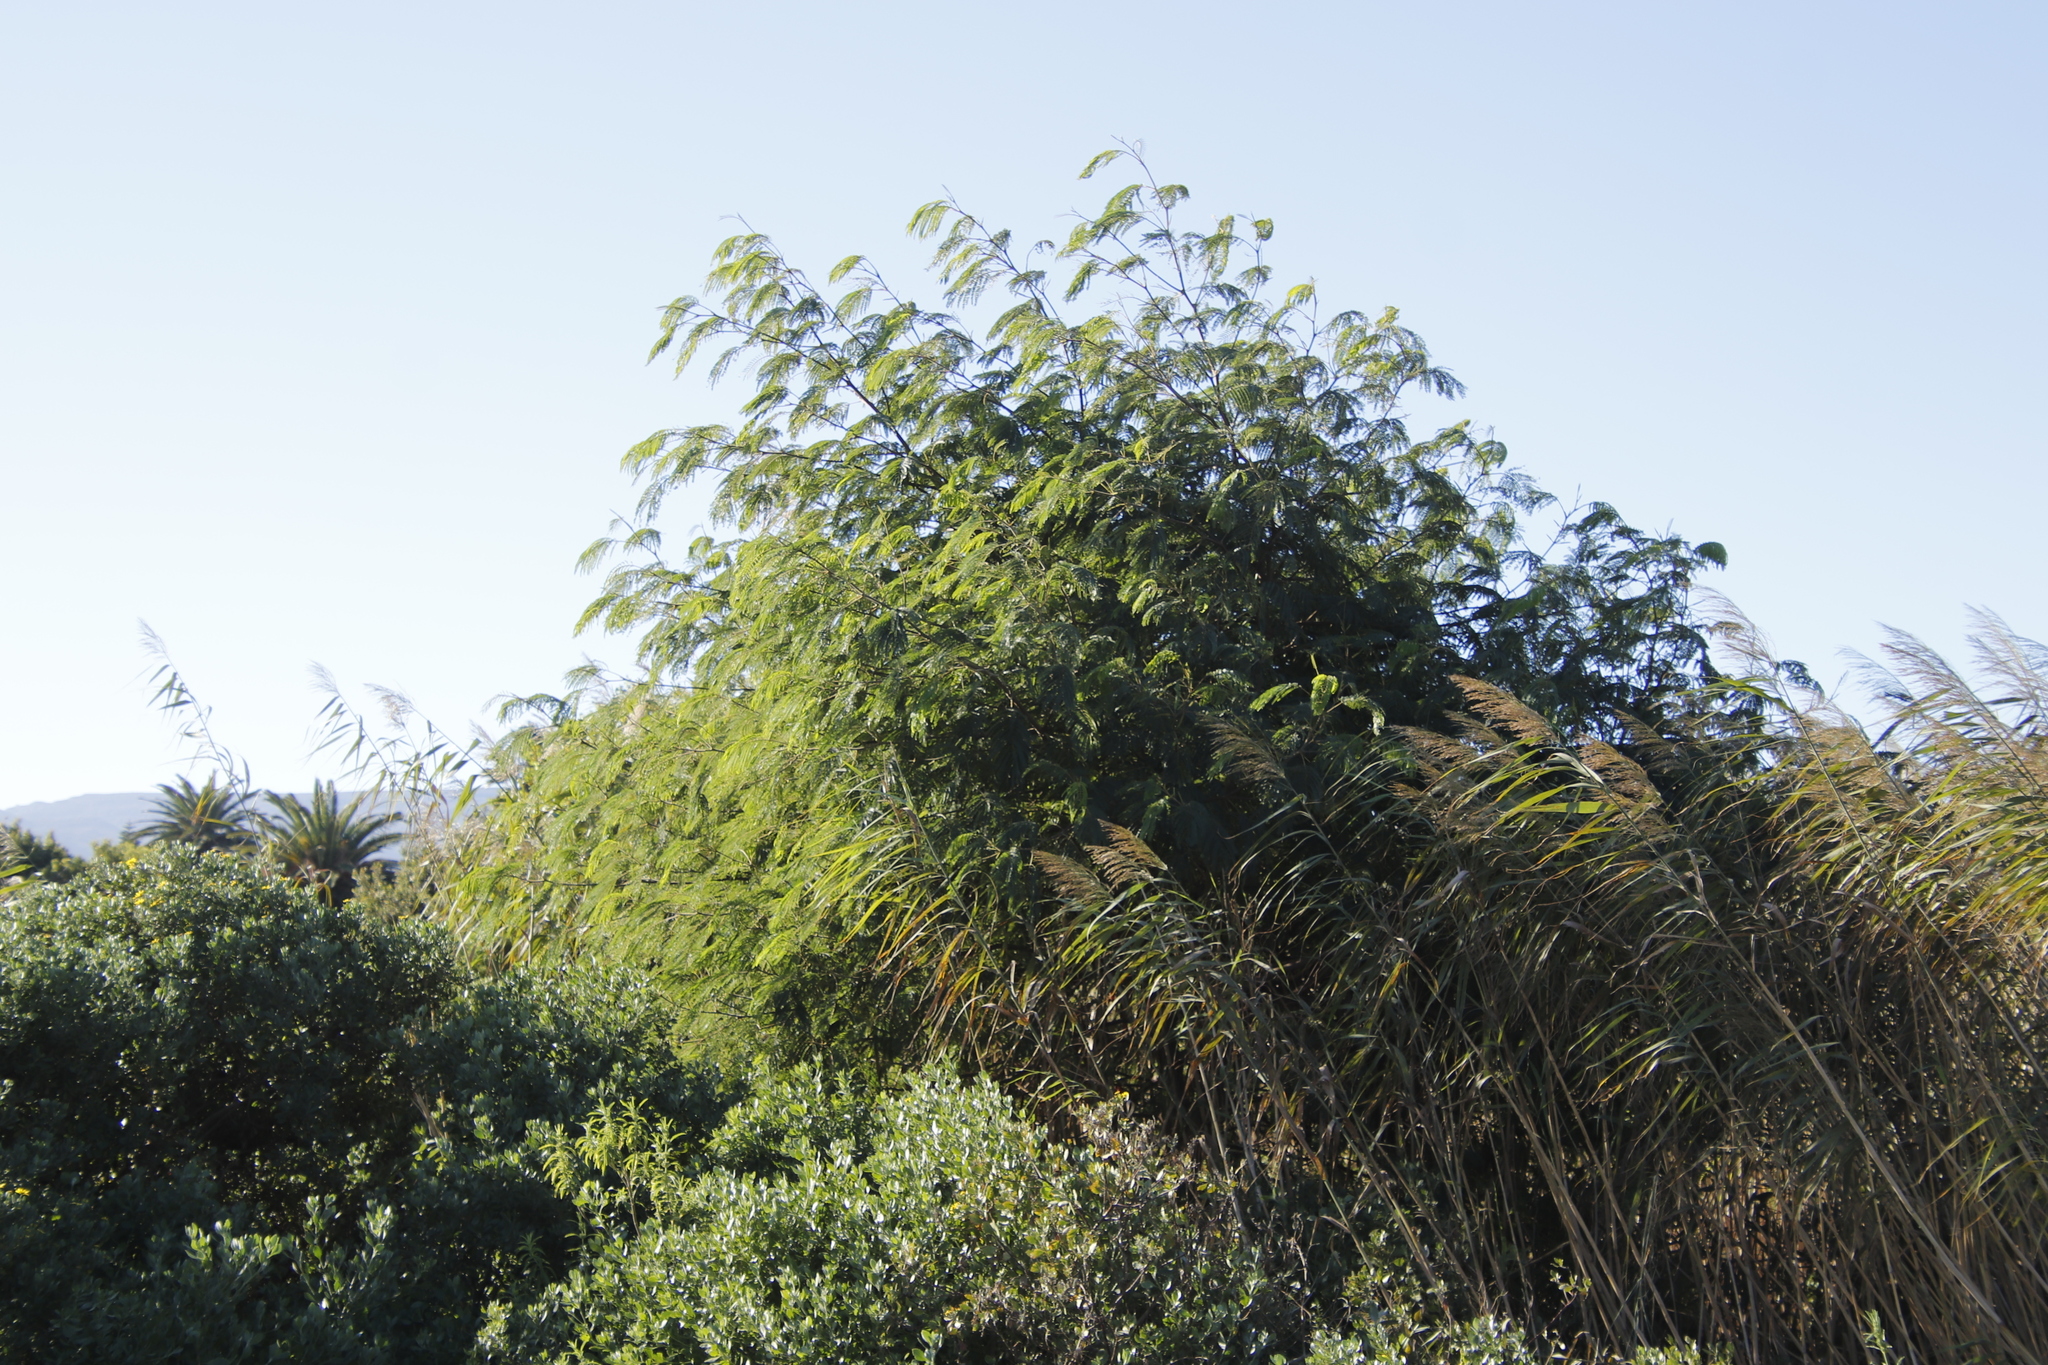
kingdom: Plantae
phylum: Tracheophyta
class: Magnoliopsida
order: Fabales
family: Fabaceae
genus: Paraserianthes
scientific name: Paraserianthes lophantha
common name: Plume albizia
